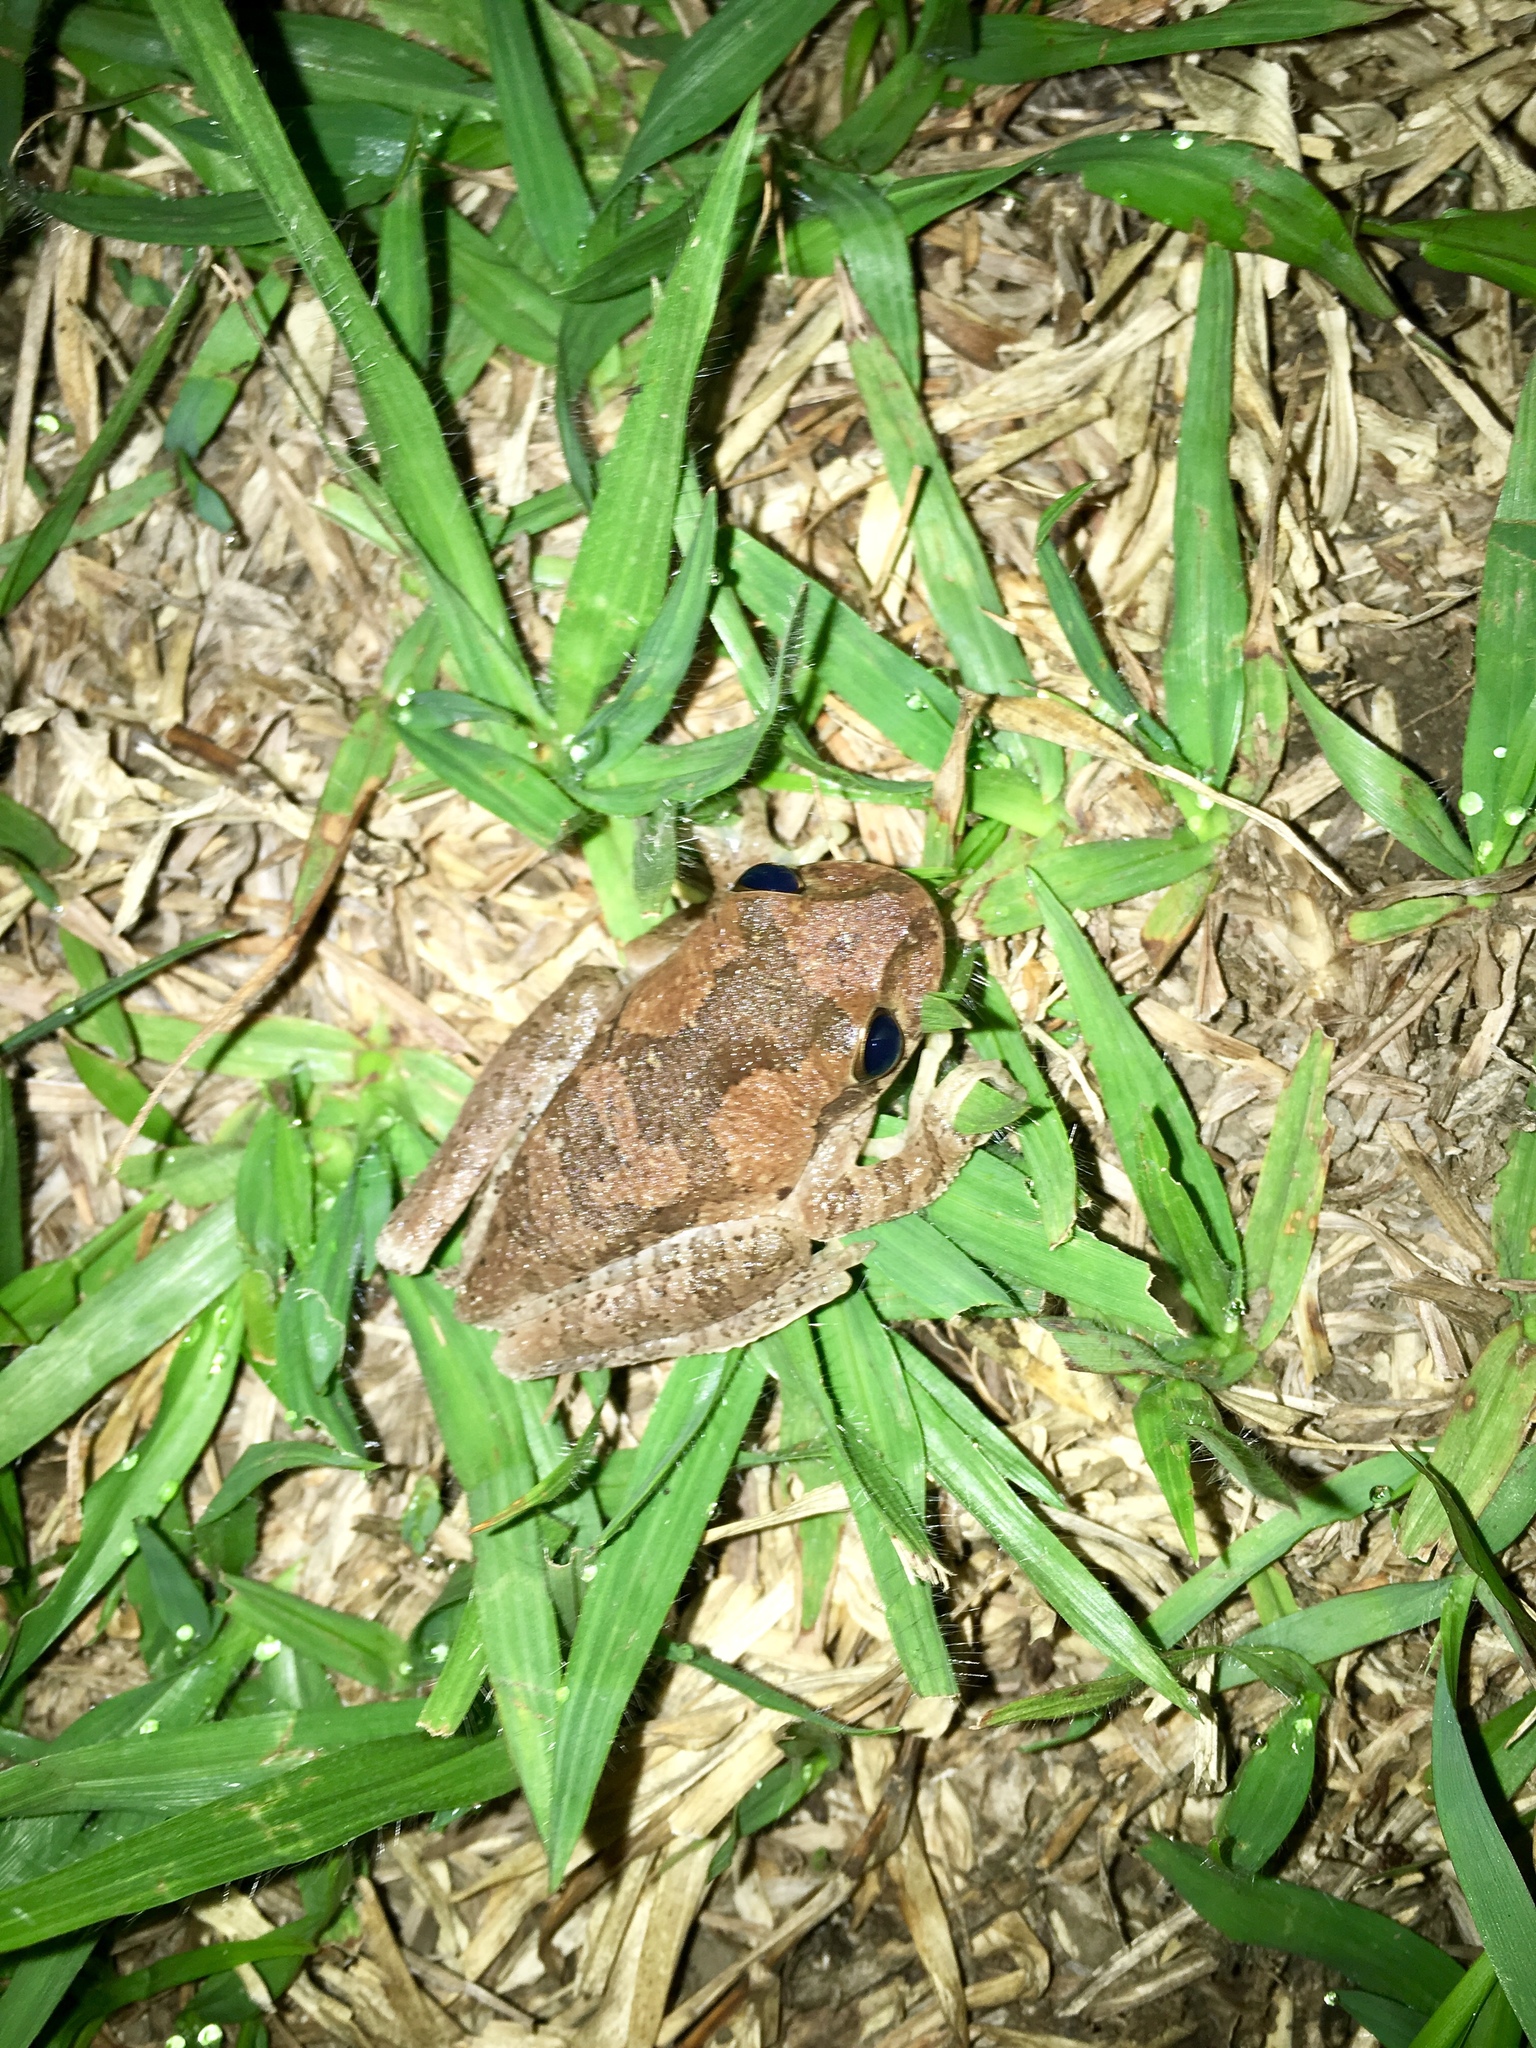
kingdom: Animalia
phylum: Chordata
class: Amphibia
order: Anura
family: Hylidae
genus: Smilisca
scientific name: Smilisca baudinii
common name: Mexican smilisca
